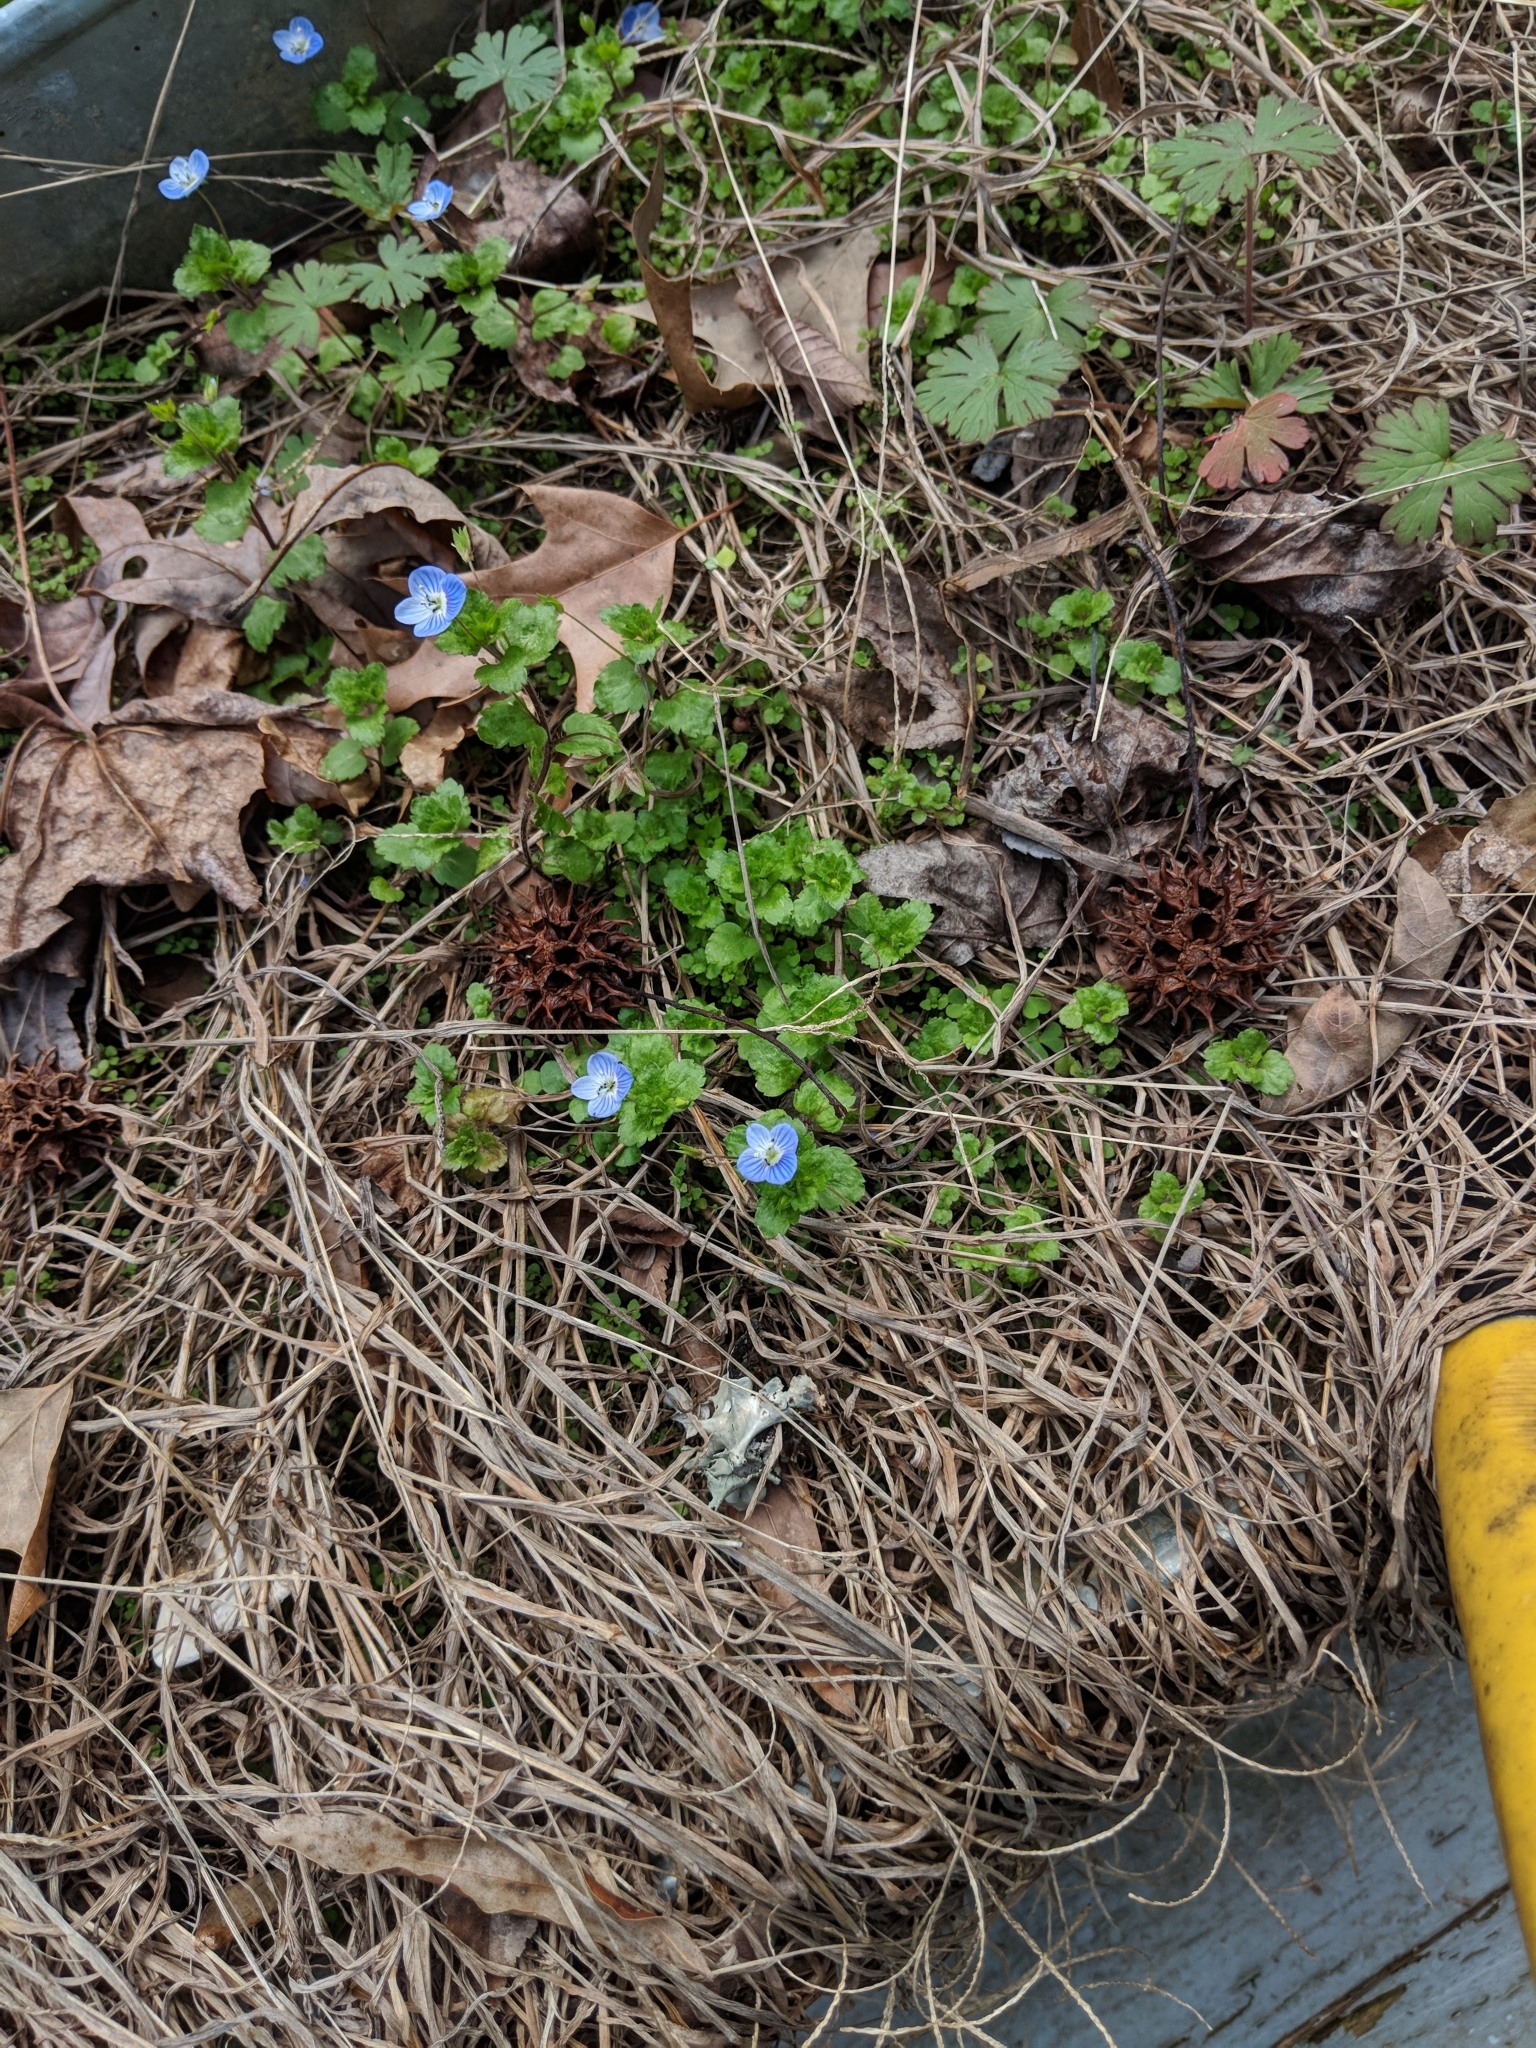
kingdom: Plantae
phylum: Tracheophyta
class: Magnoliopsida
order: Lamiales
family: Plantaginaceae
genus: Veronica
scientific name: Veronica persica
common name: Common field-speedwell
